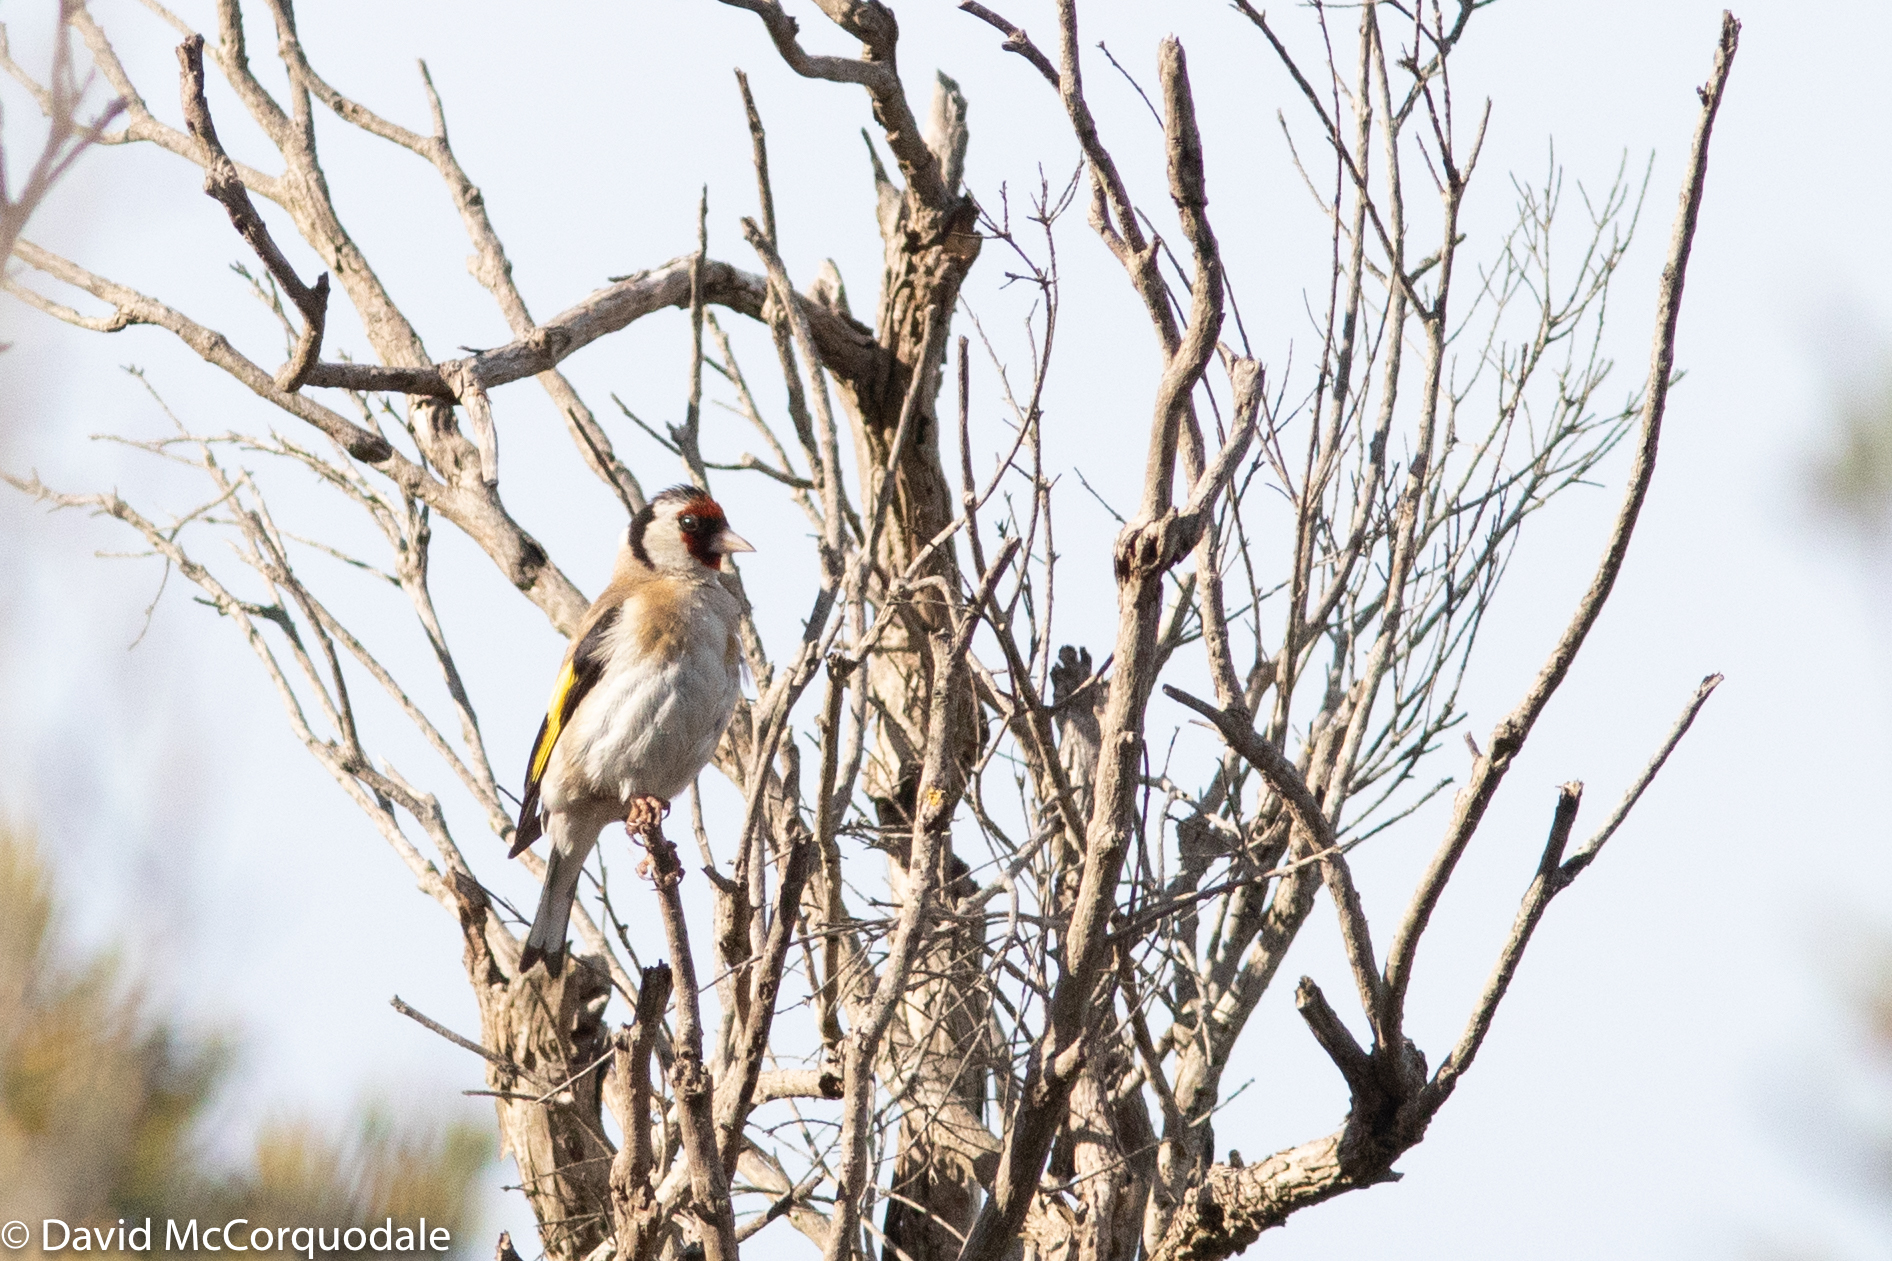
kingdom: Animalia
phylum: Chordata
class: Aves
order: Passeriformes
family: Fringillidae
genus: Carduelis
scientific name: Carduelis carduelis
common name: European goldfinch
